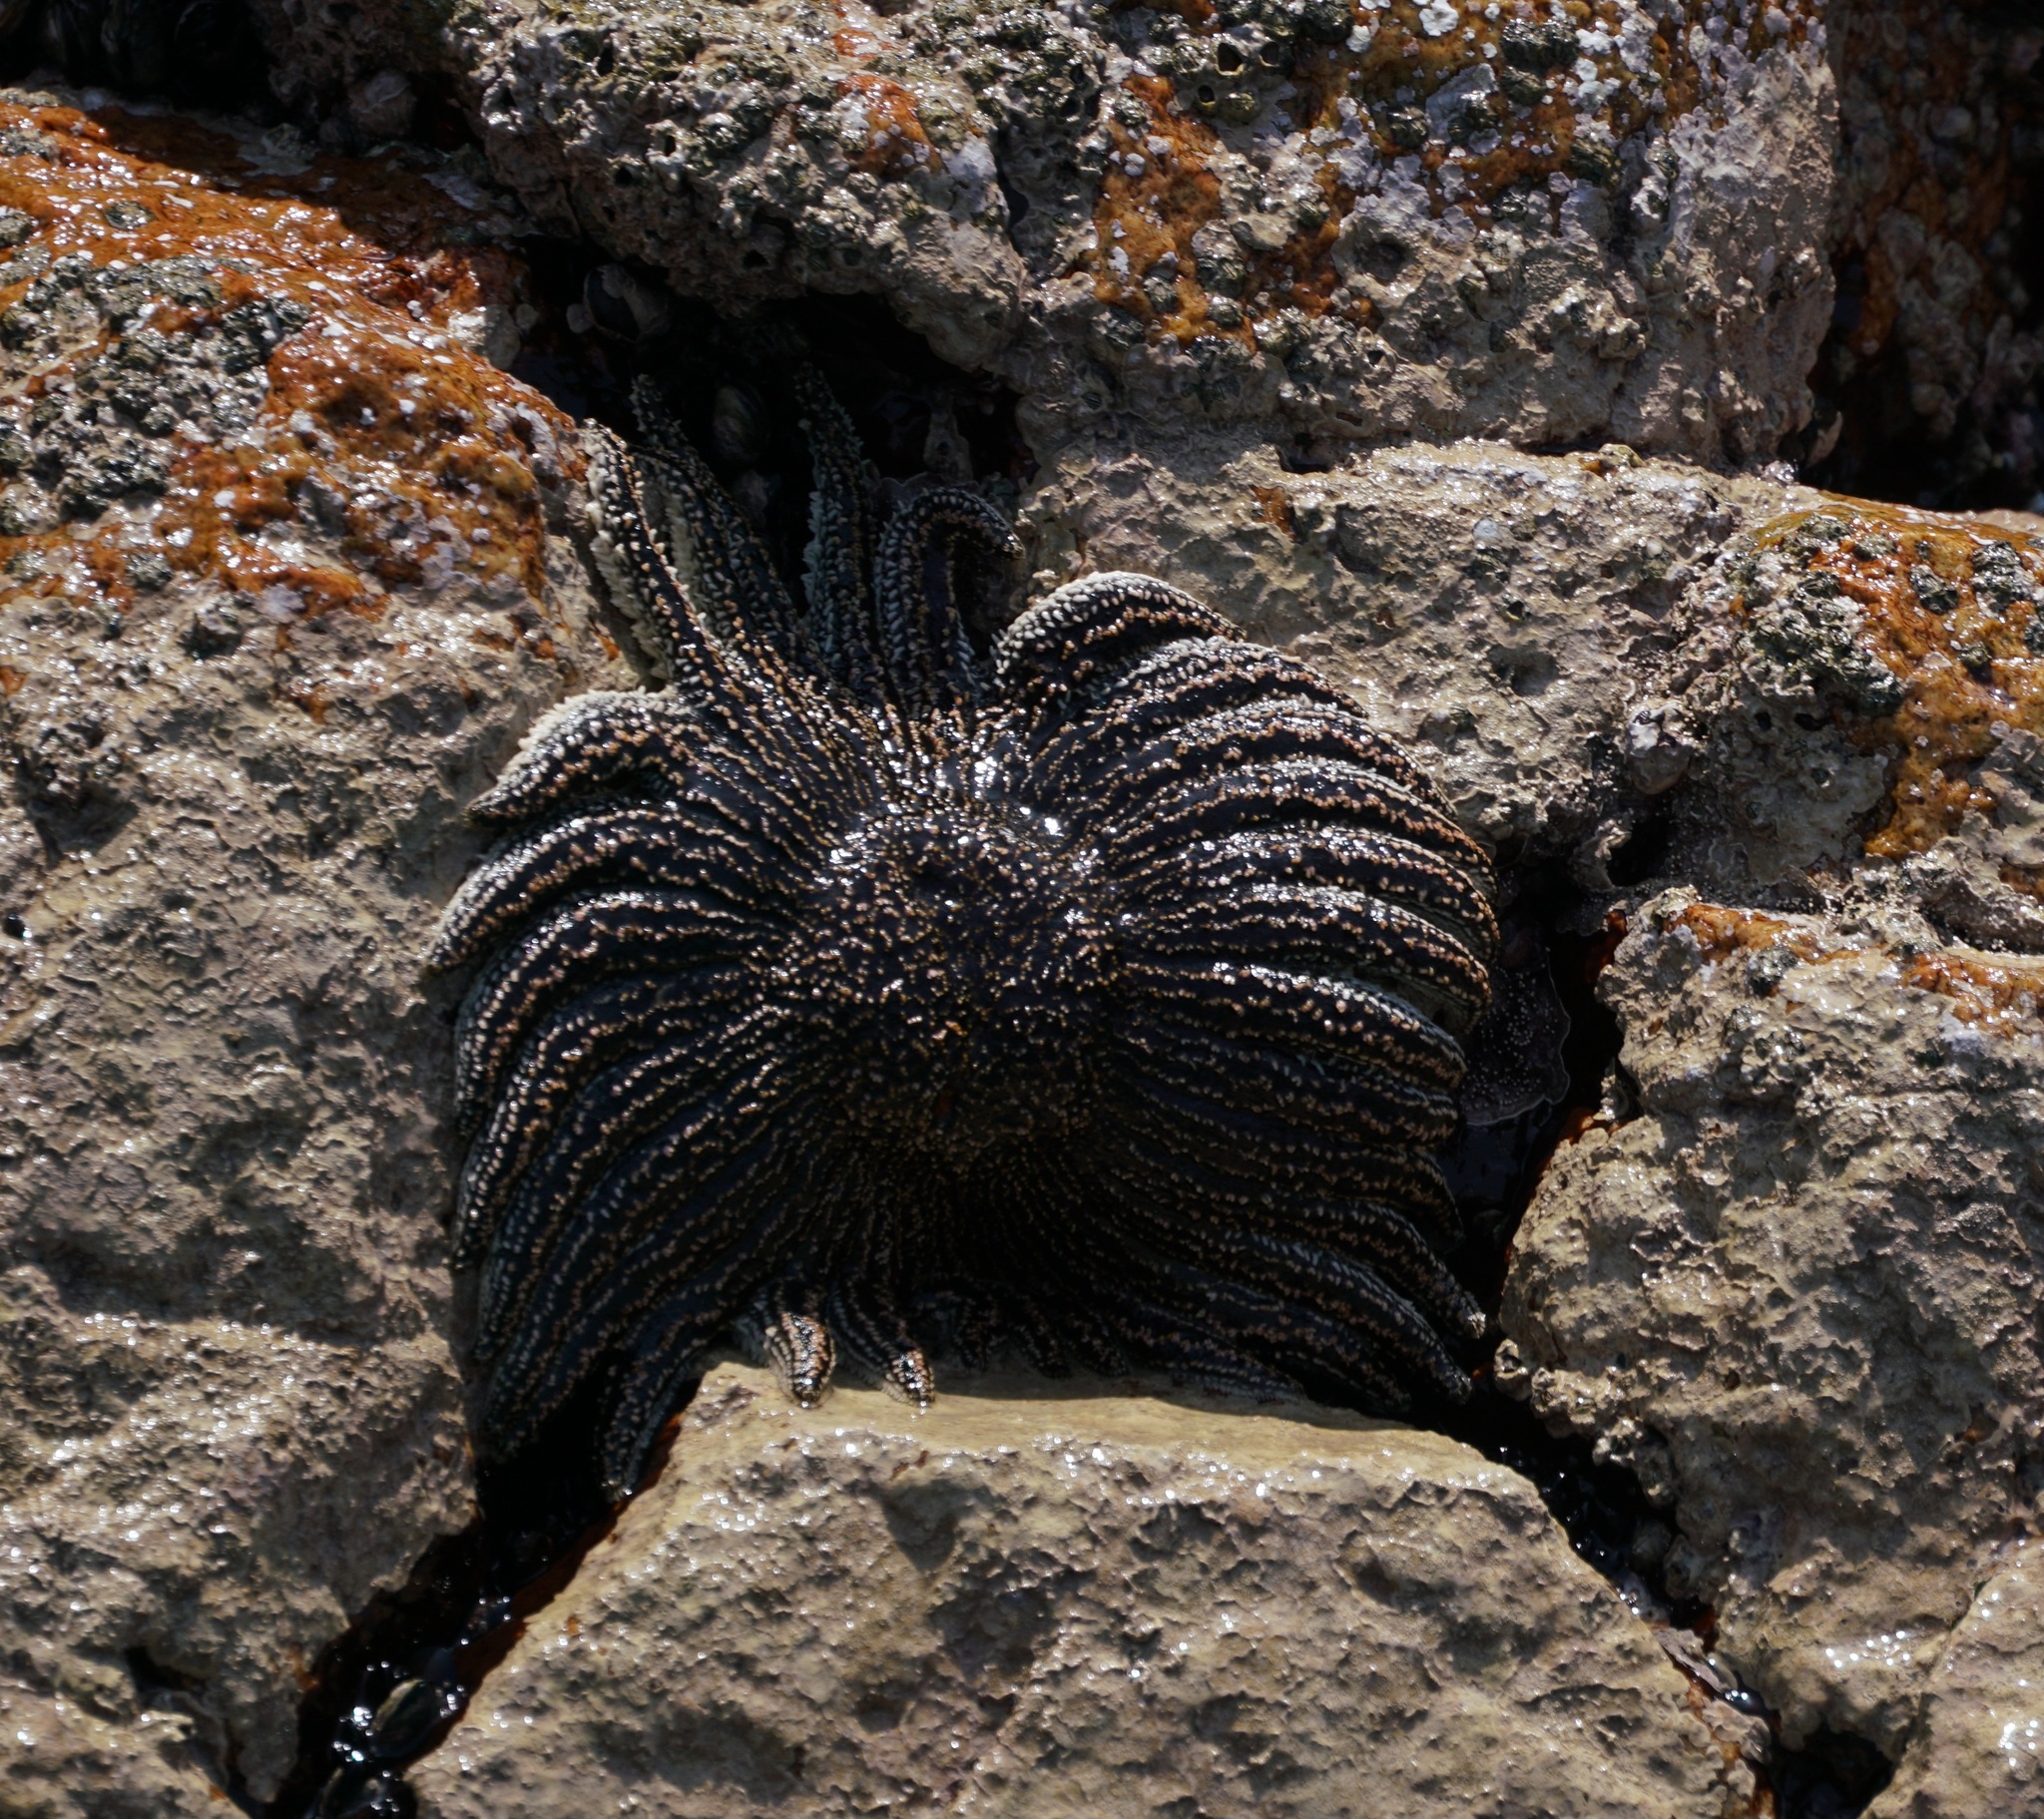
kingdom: Animalia
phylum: Echinodermata
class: Asteroidea
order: Forcipulatida
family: Heliasteridae
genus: Heliaster
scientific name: Heliaster helianthus
